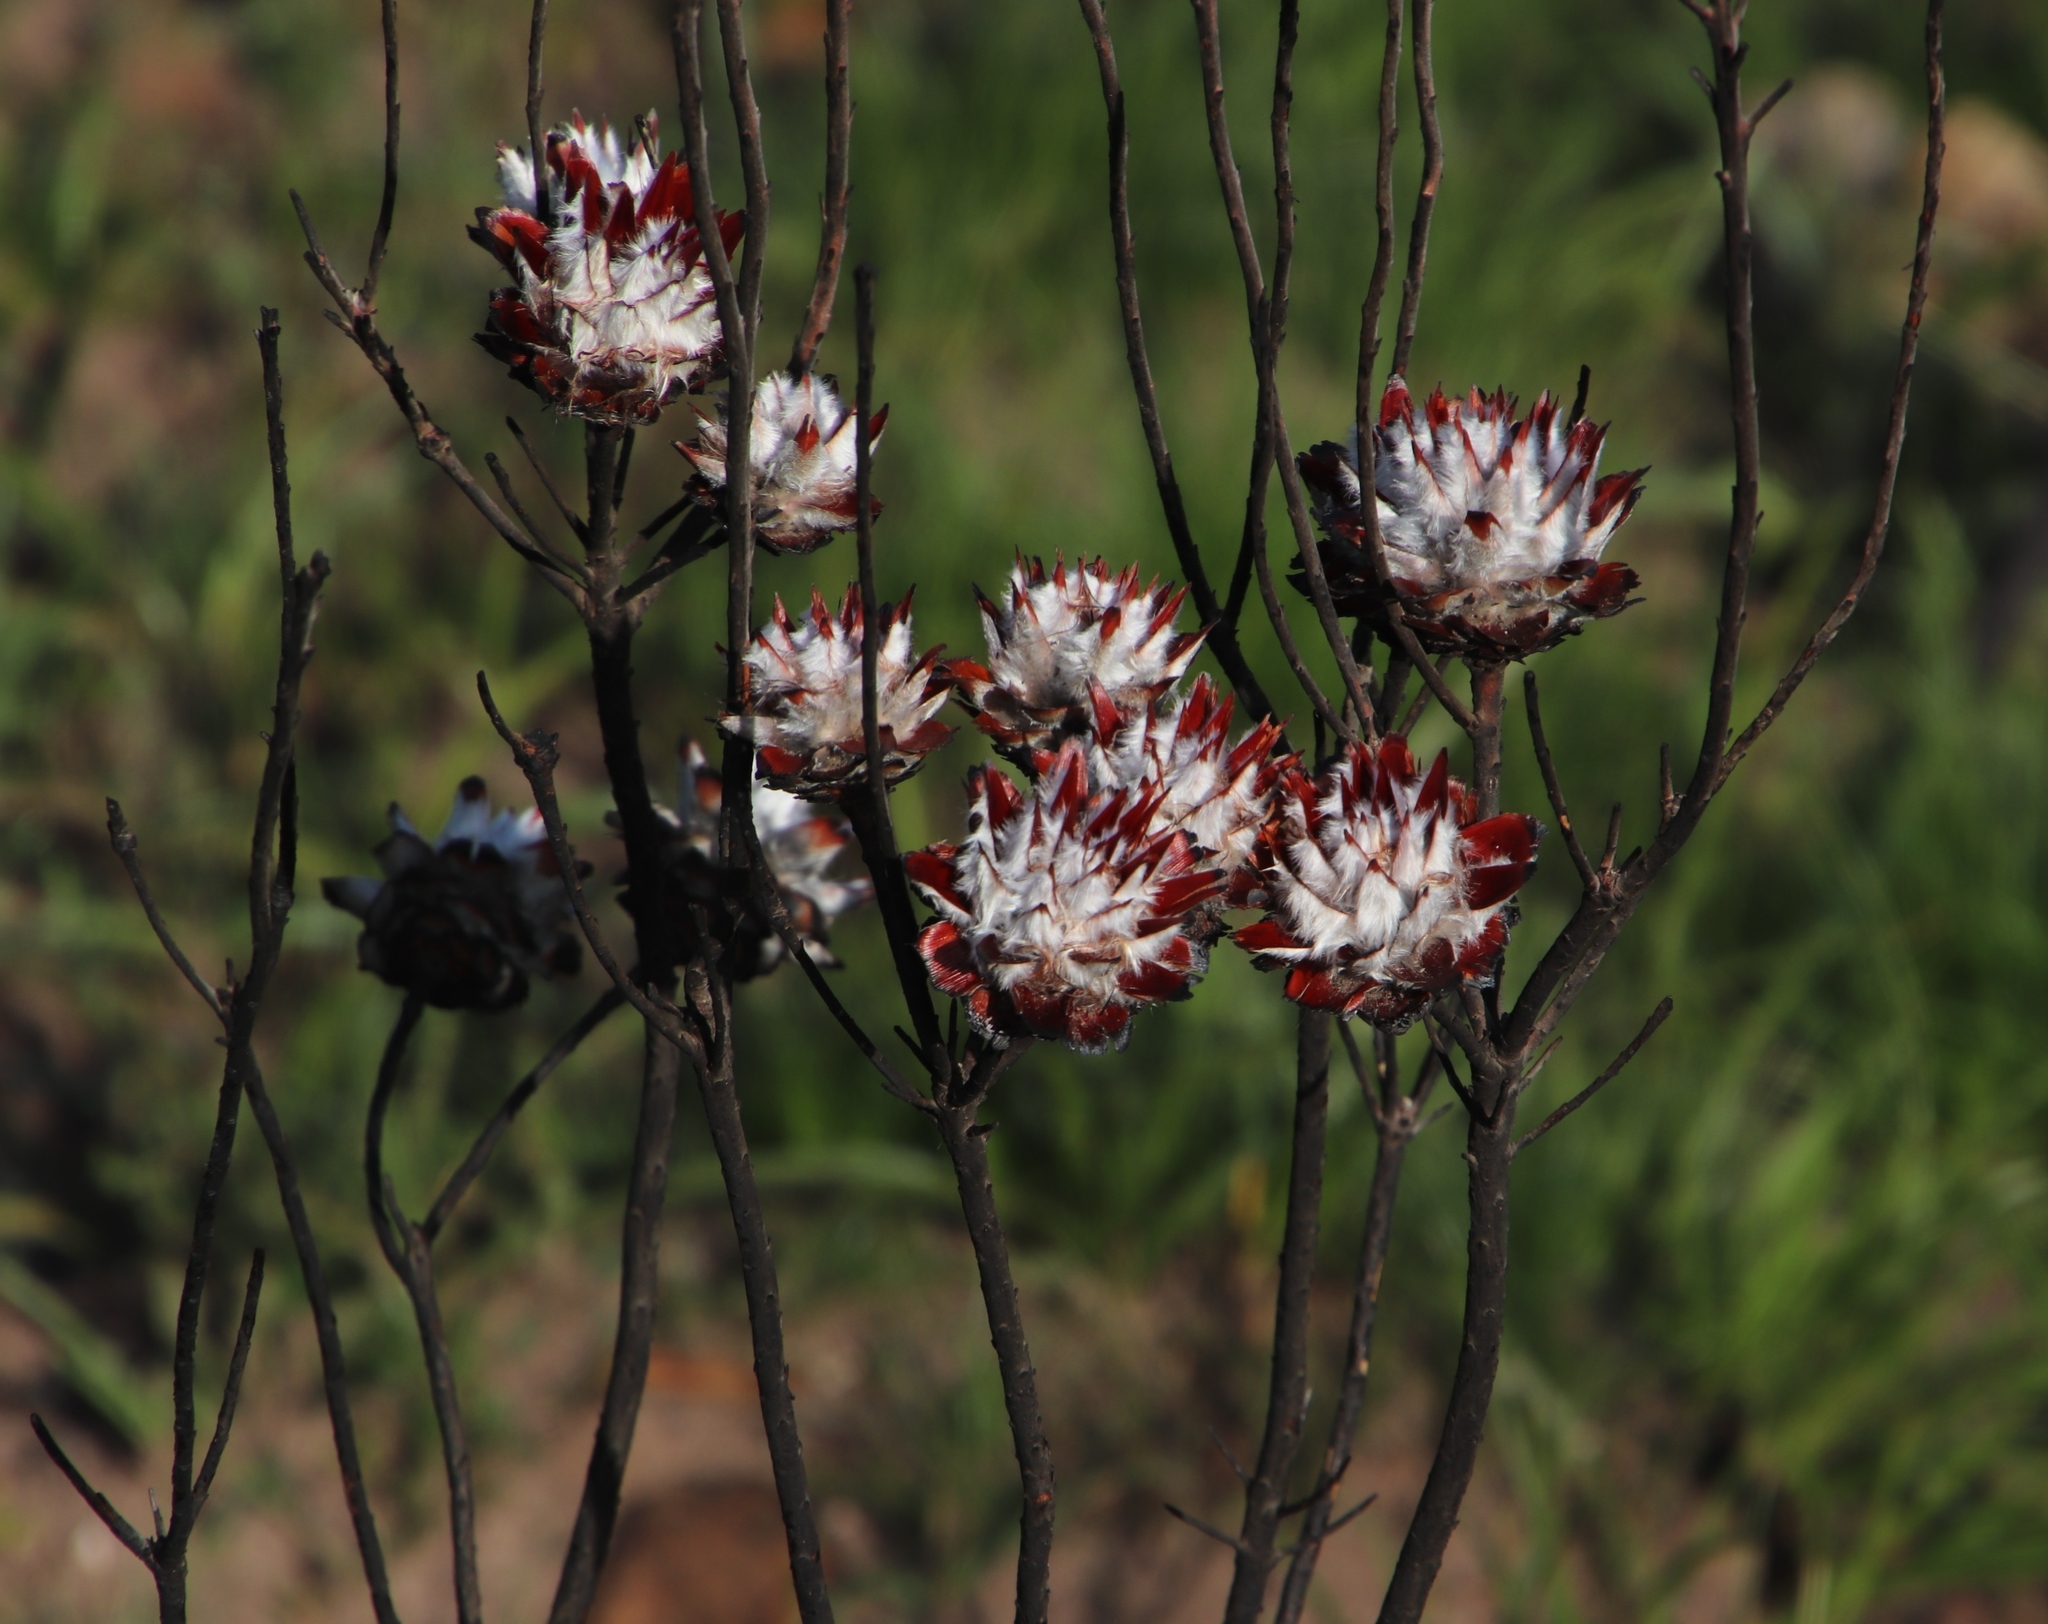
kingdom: Plantae
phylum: Tracheophyta
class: Magnoliopsida
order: Proteales
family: Proteaceae
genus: Leucadendron
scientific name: Leucadendron rubrum
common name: Spinning top
